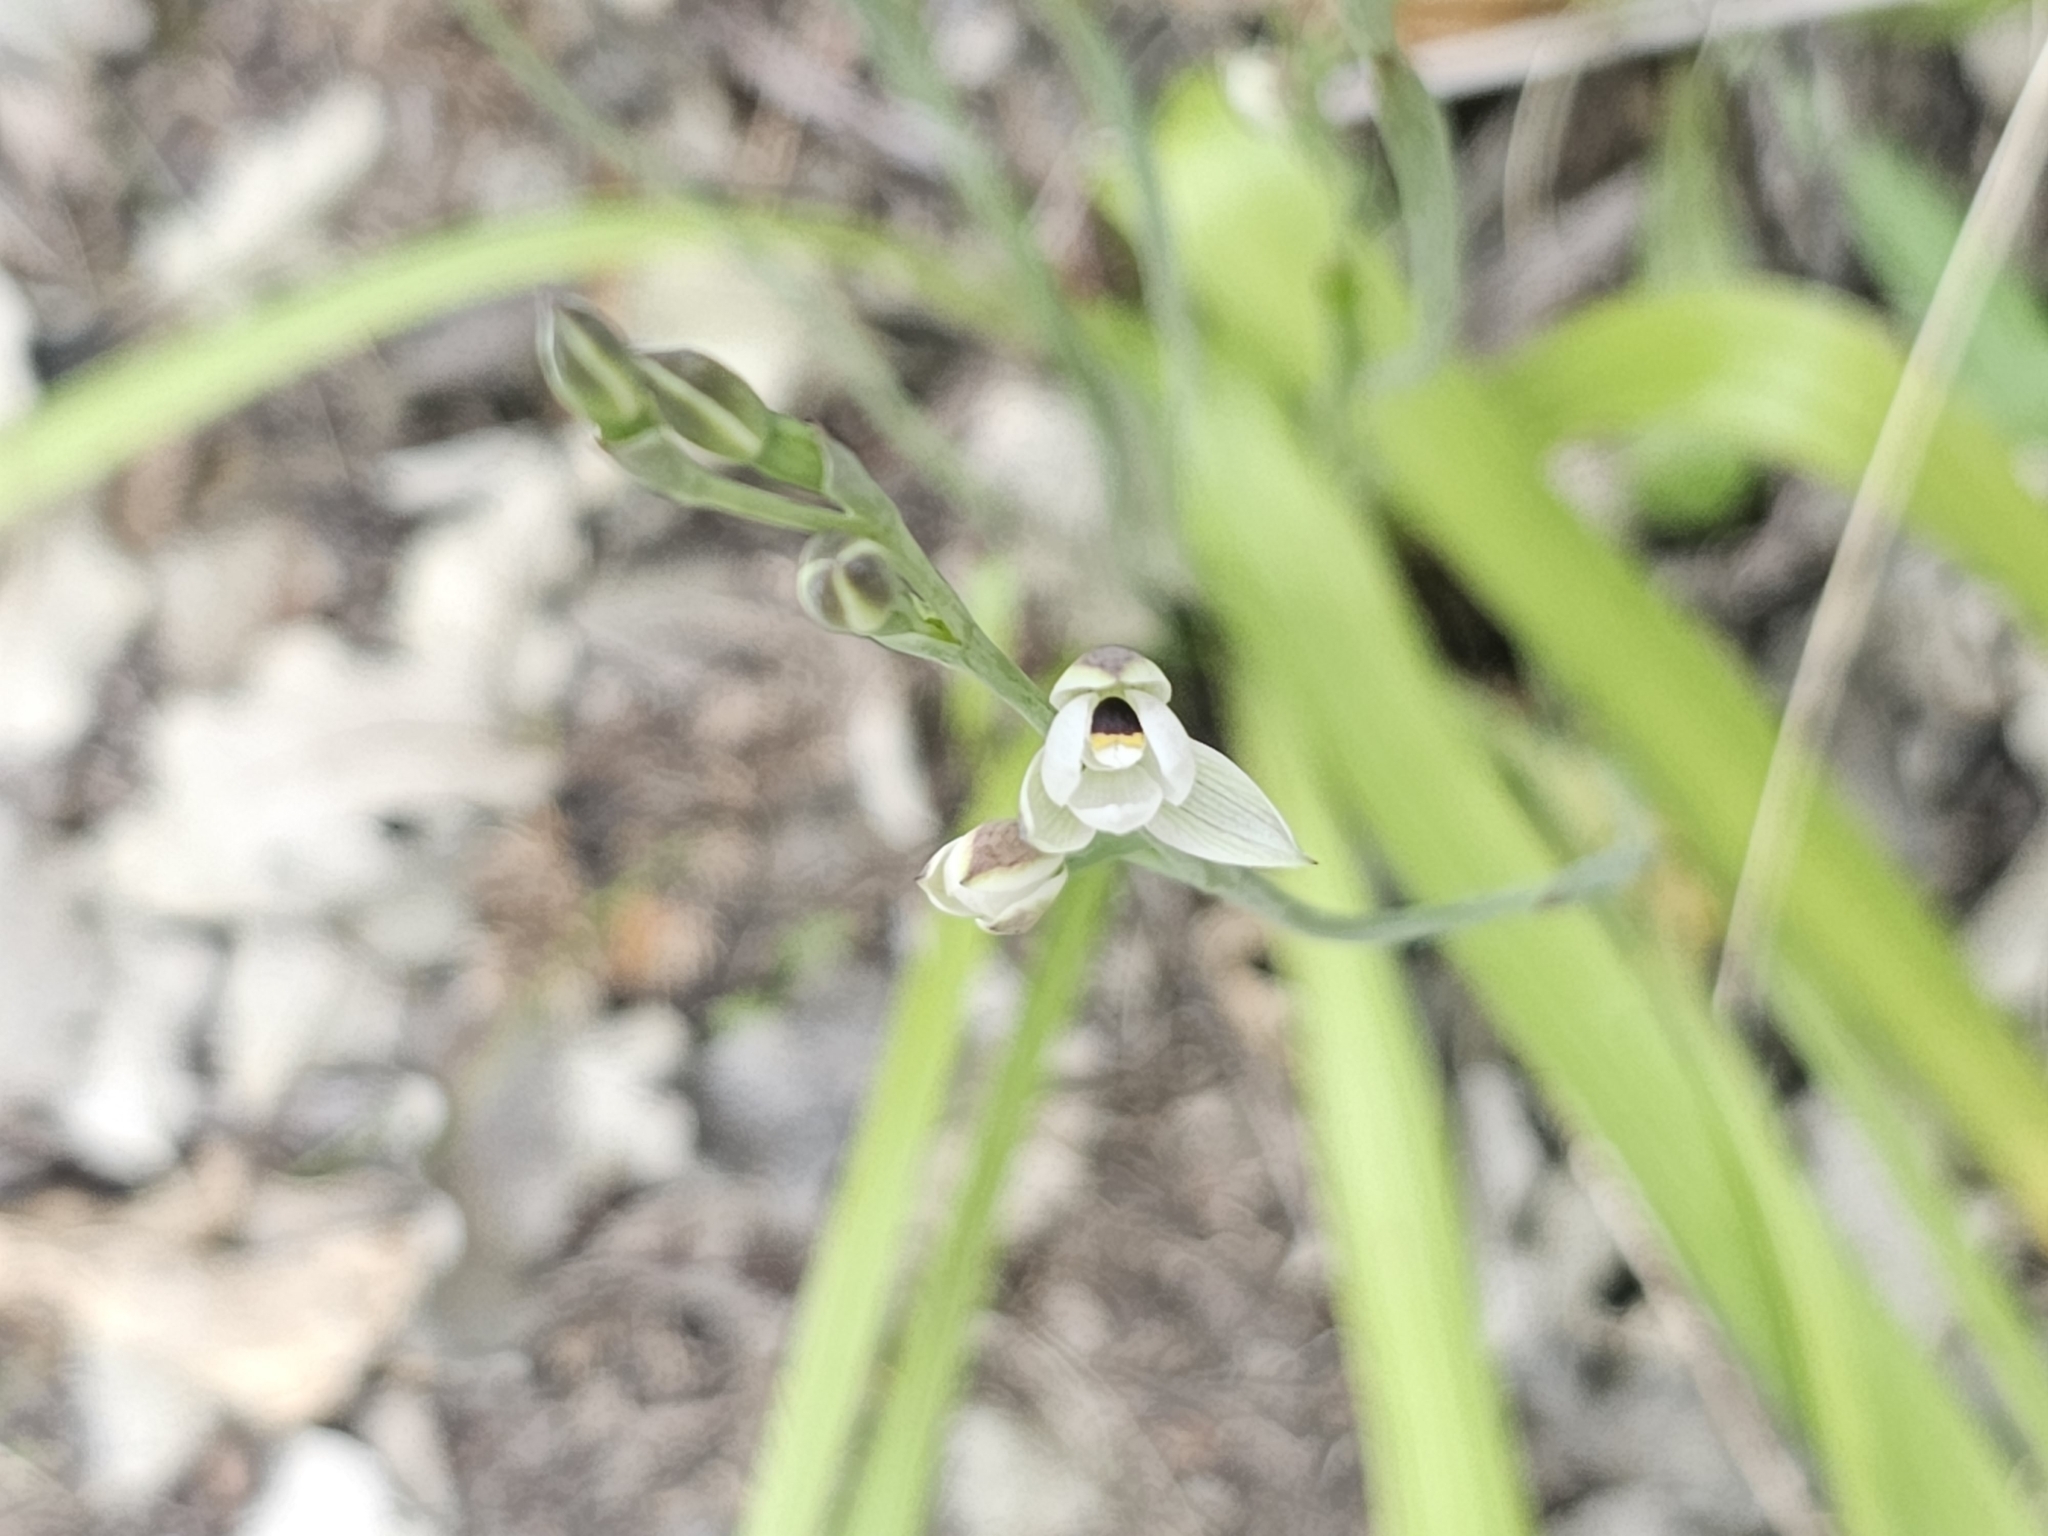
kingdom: Plantae
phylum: Tracheophyta
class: Liliopsida
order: Asparagales
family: Orchidaceae
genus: Thelymitra
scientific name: Thelymitra longifolia
